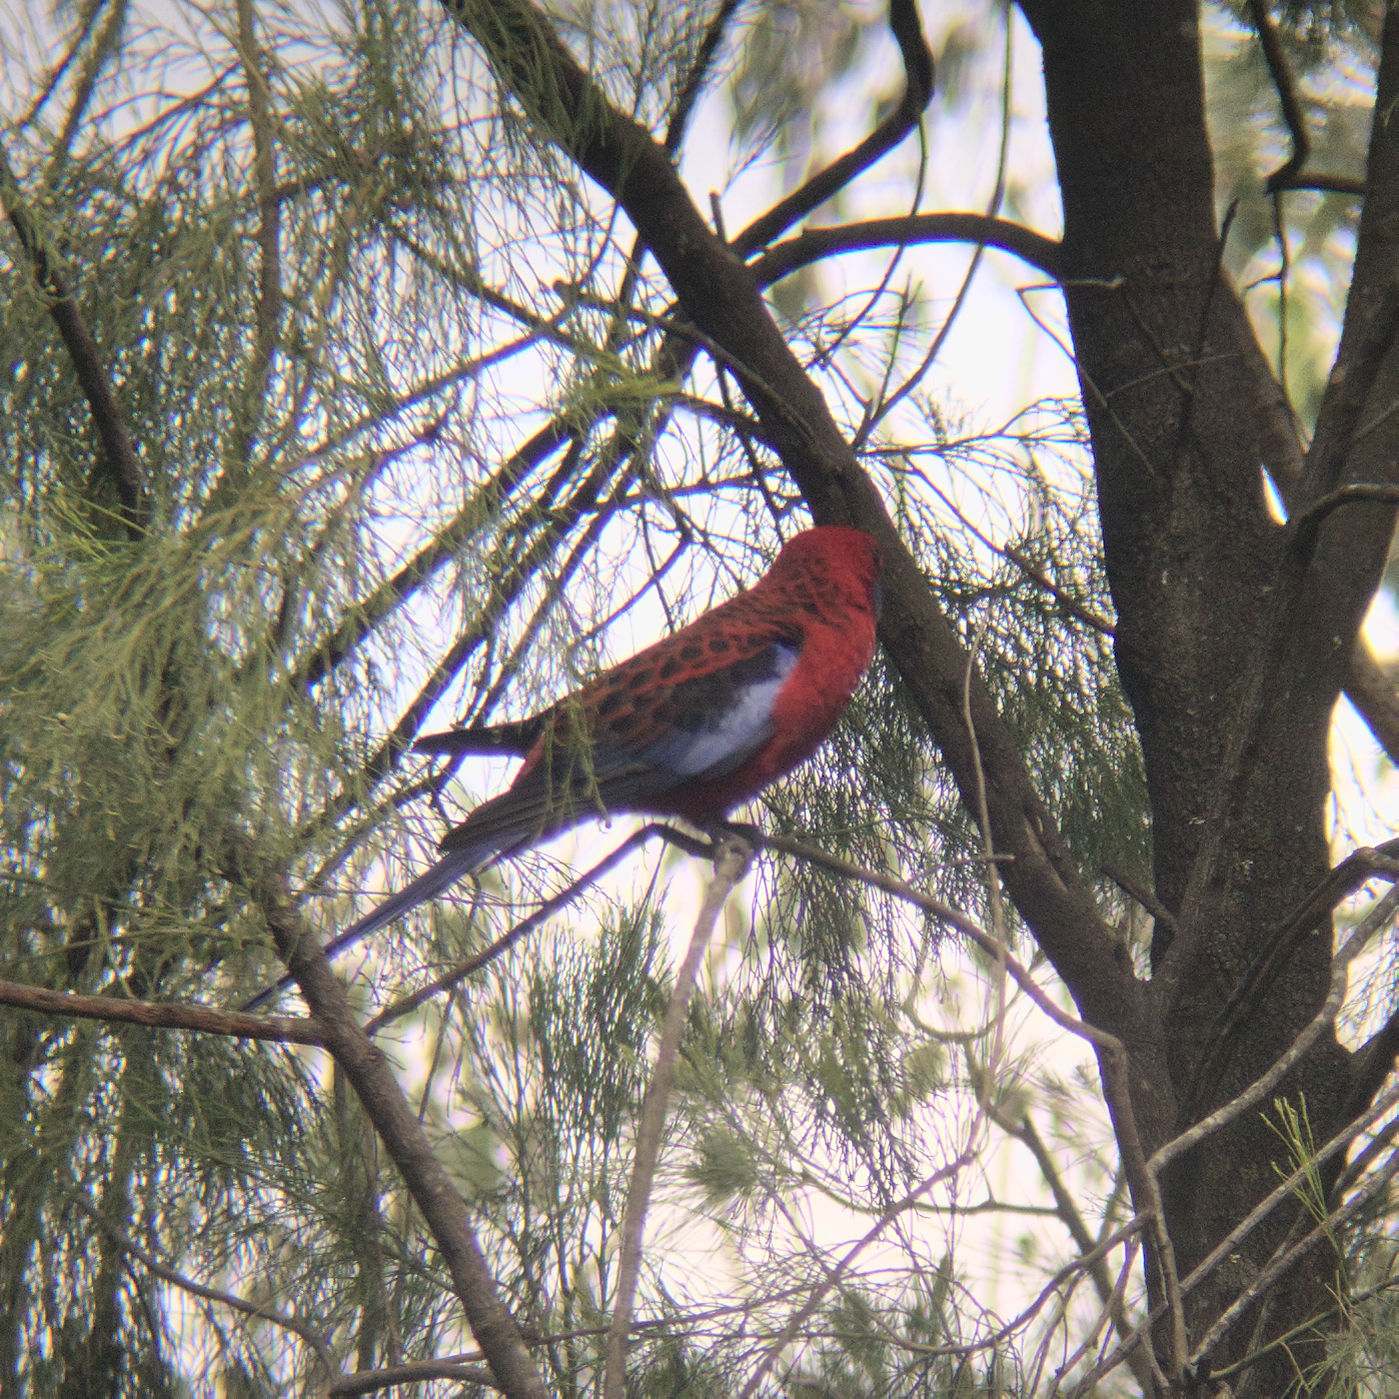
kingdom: Animalia
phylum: Chordata
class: Aves
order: Psittaciformes
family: Psittacidae
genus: Platycercus
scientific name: Platycercus elegans
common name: Crimson rosella
